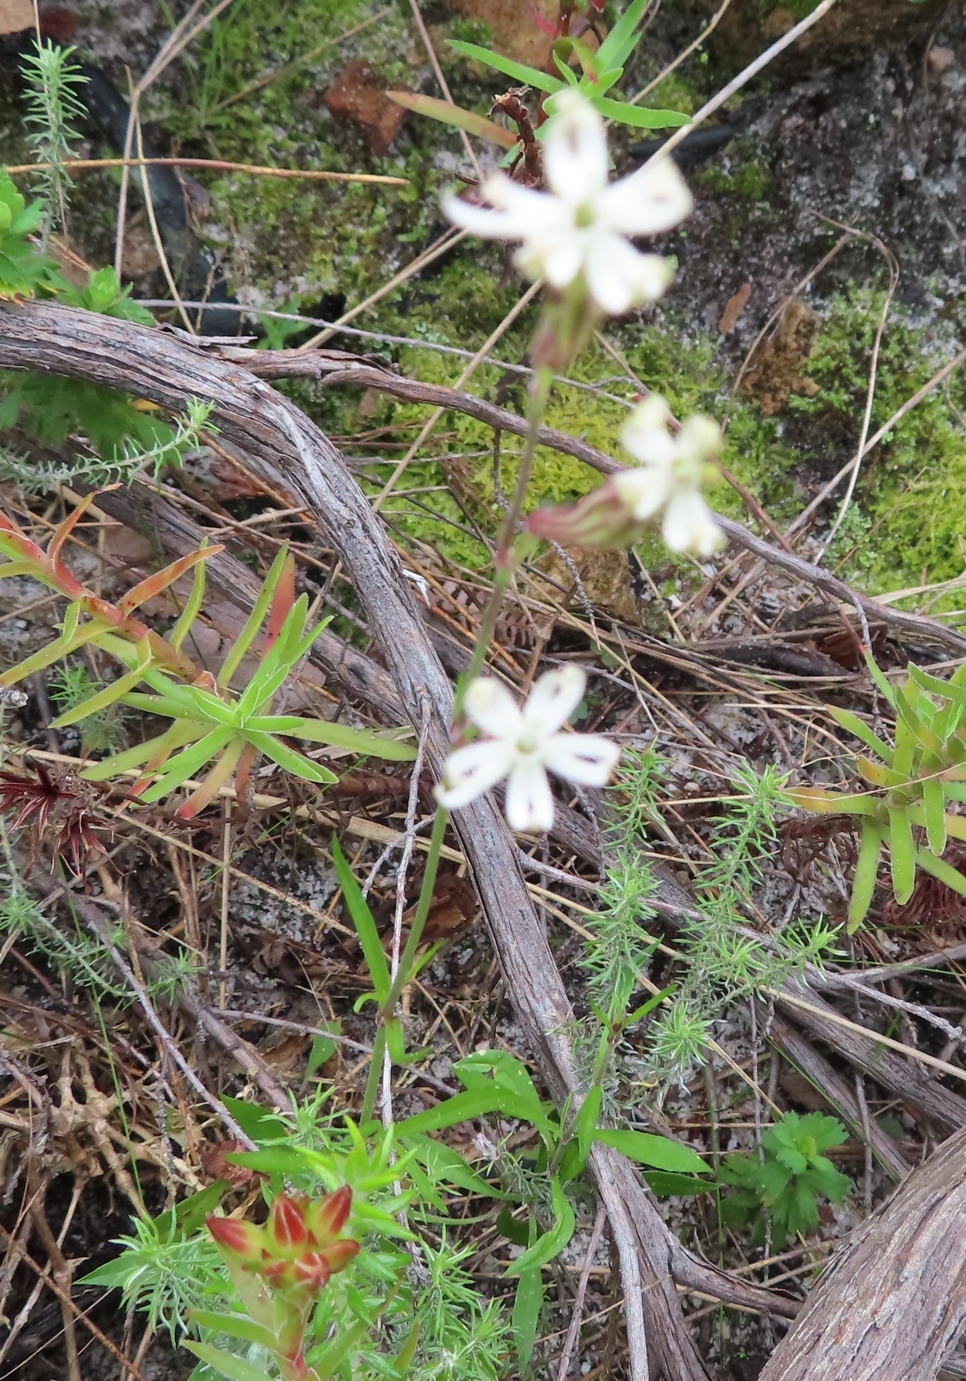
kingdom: Plantae
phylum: Tracheophyta
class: Magnoliopsida
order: Caryophyllales
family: Caryophyllaceae
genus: Silene
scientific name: Silene burchellii
